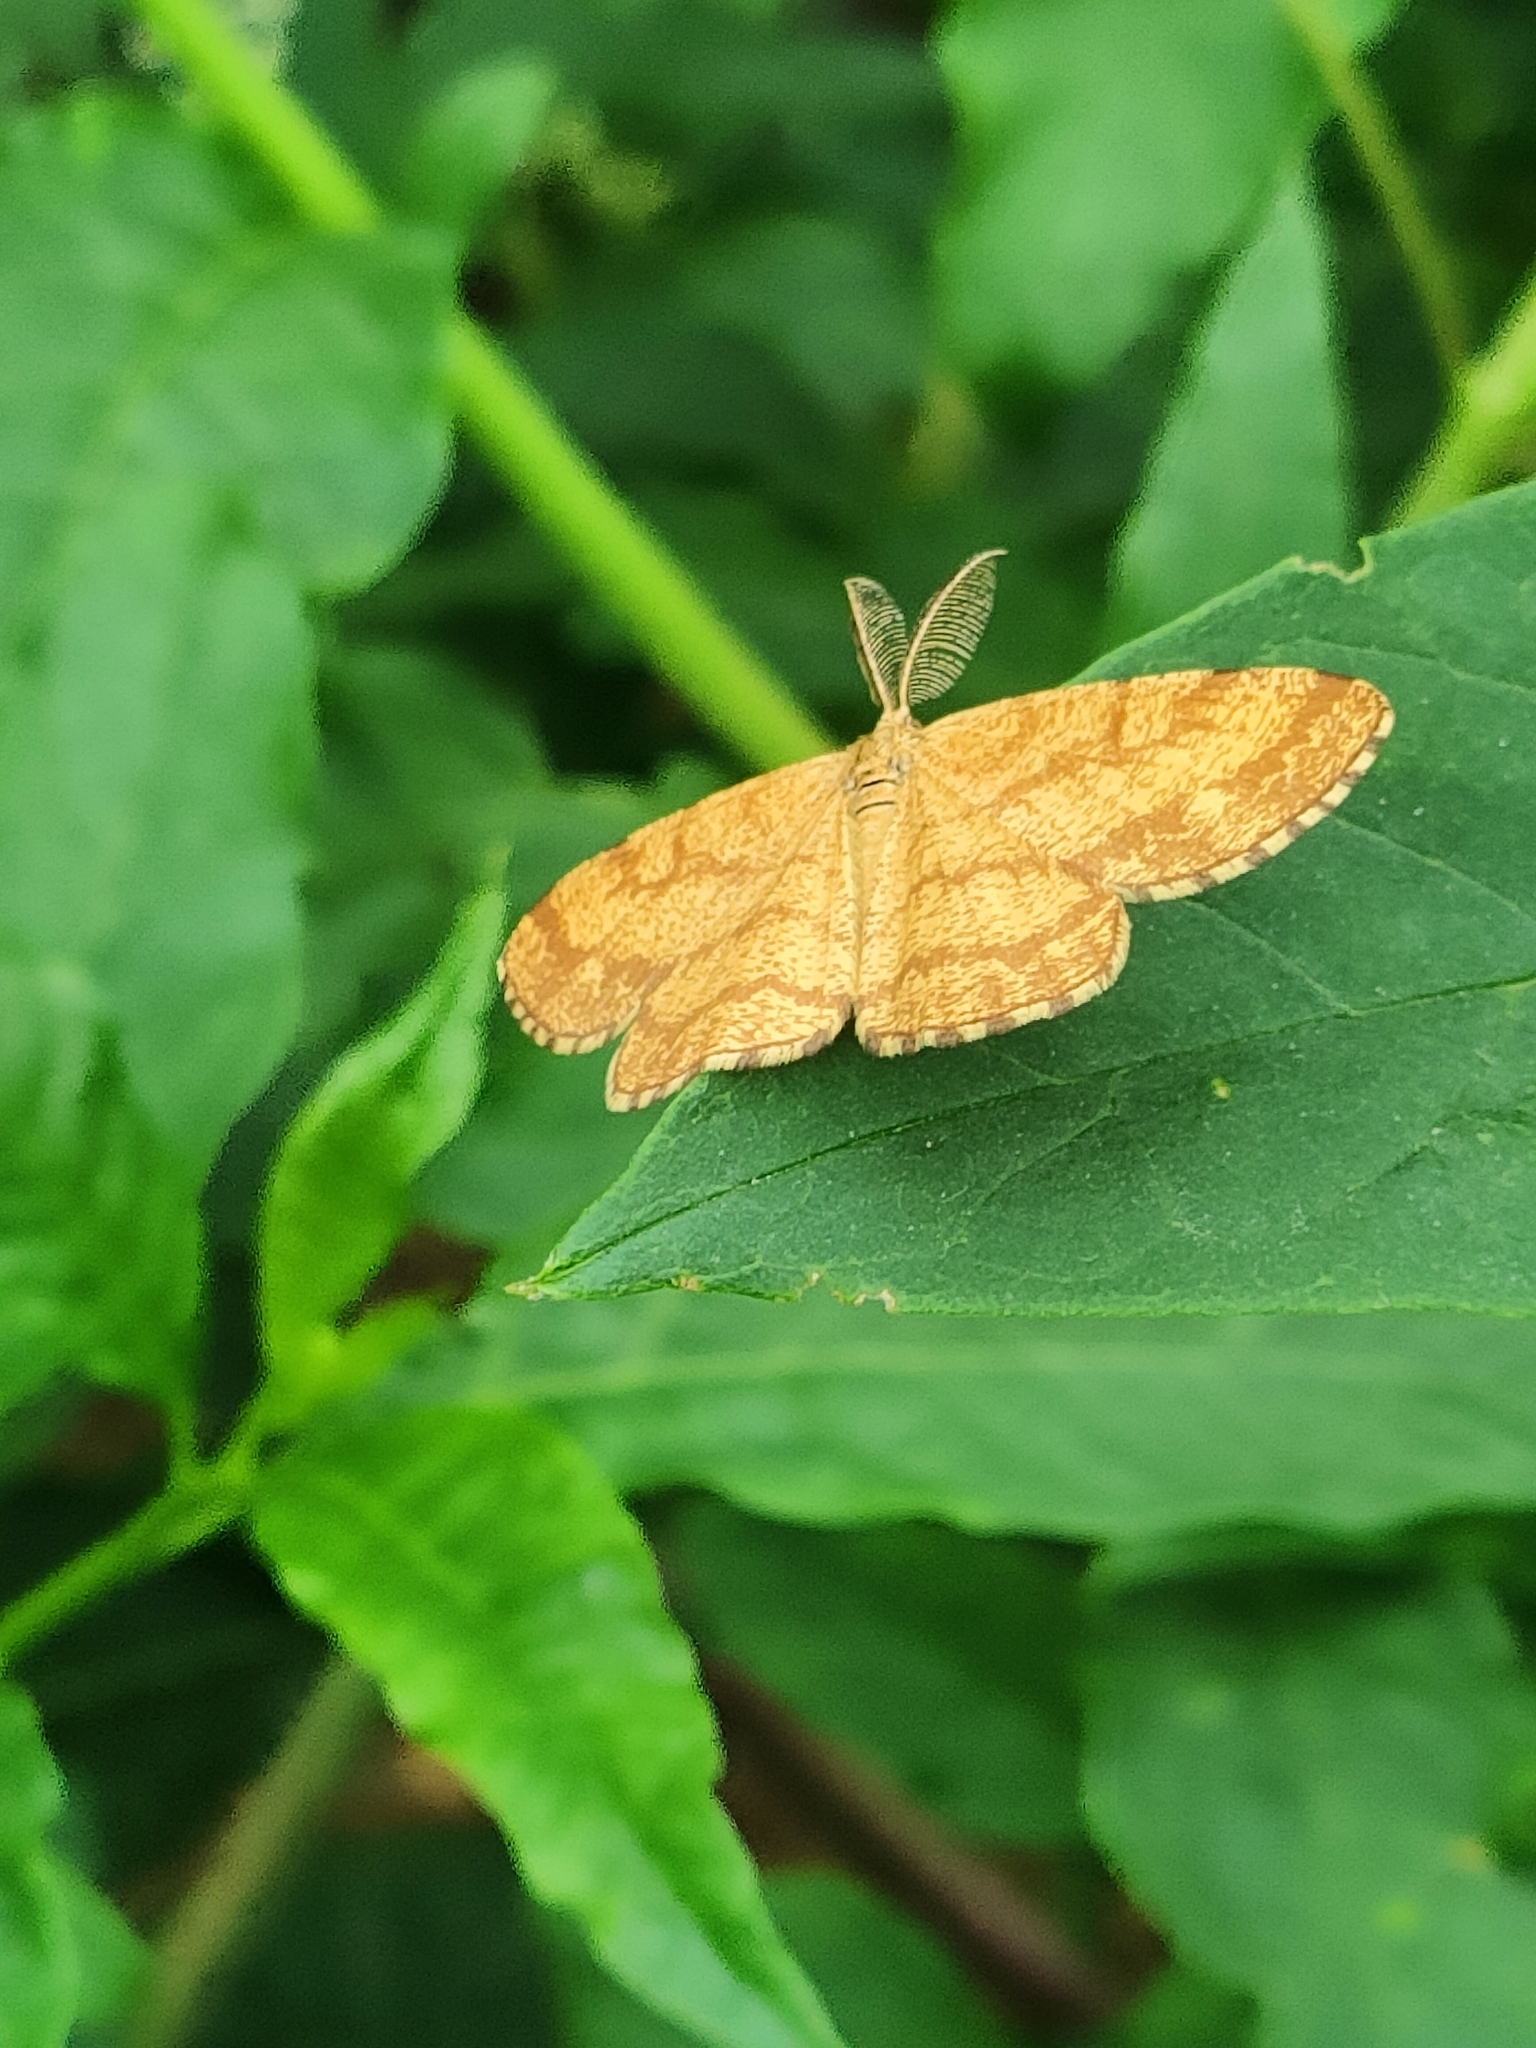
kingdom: Animalia
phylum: Arthropoda
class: Insecta
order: Lepidoptera
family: Geometridae
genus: Ematurga
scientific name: Ematurga atomaria
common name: Common heath
